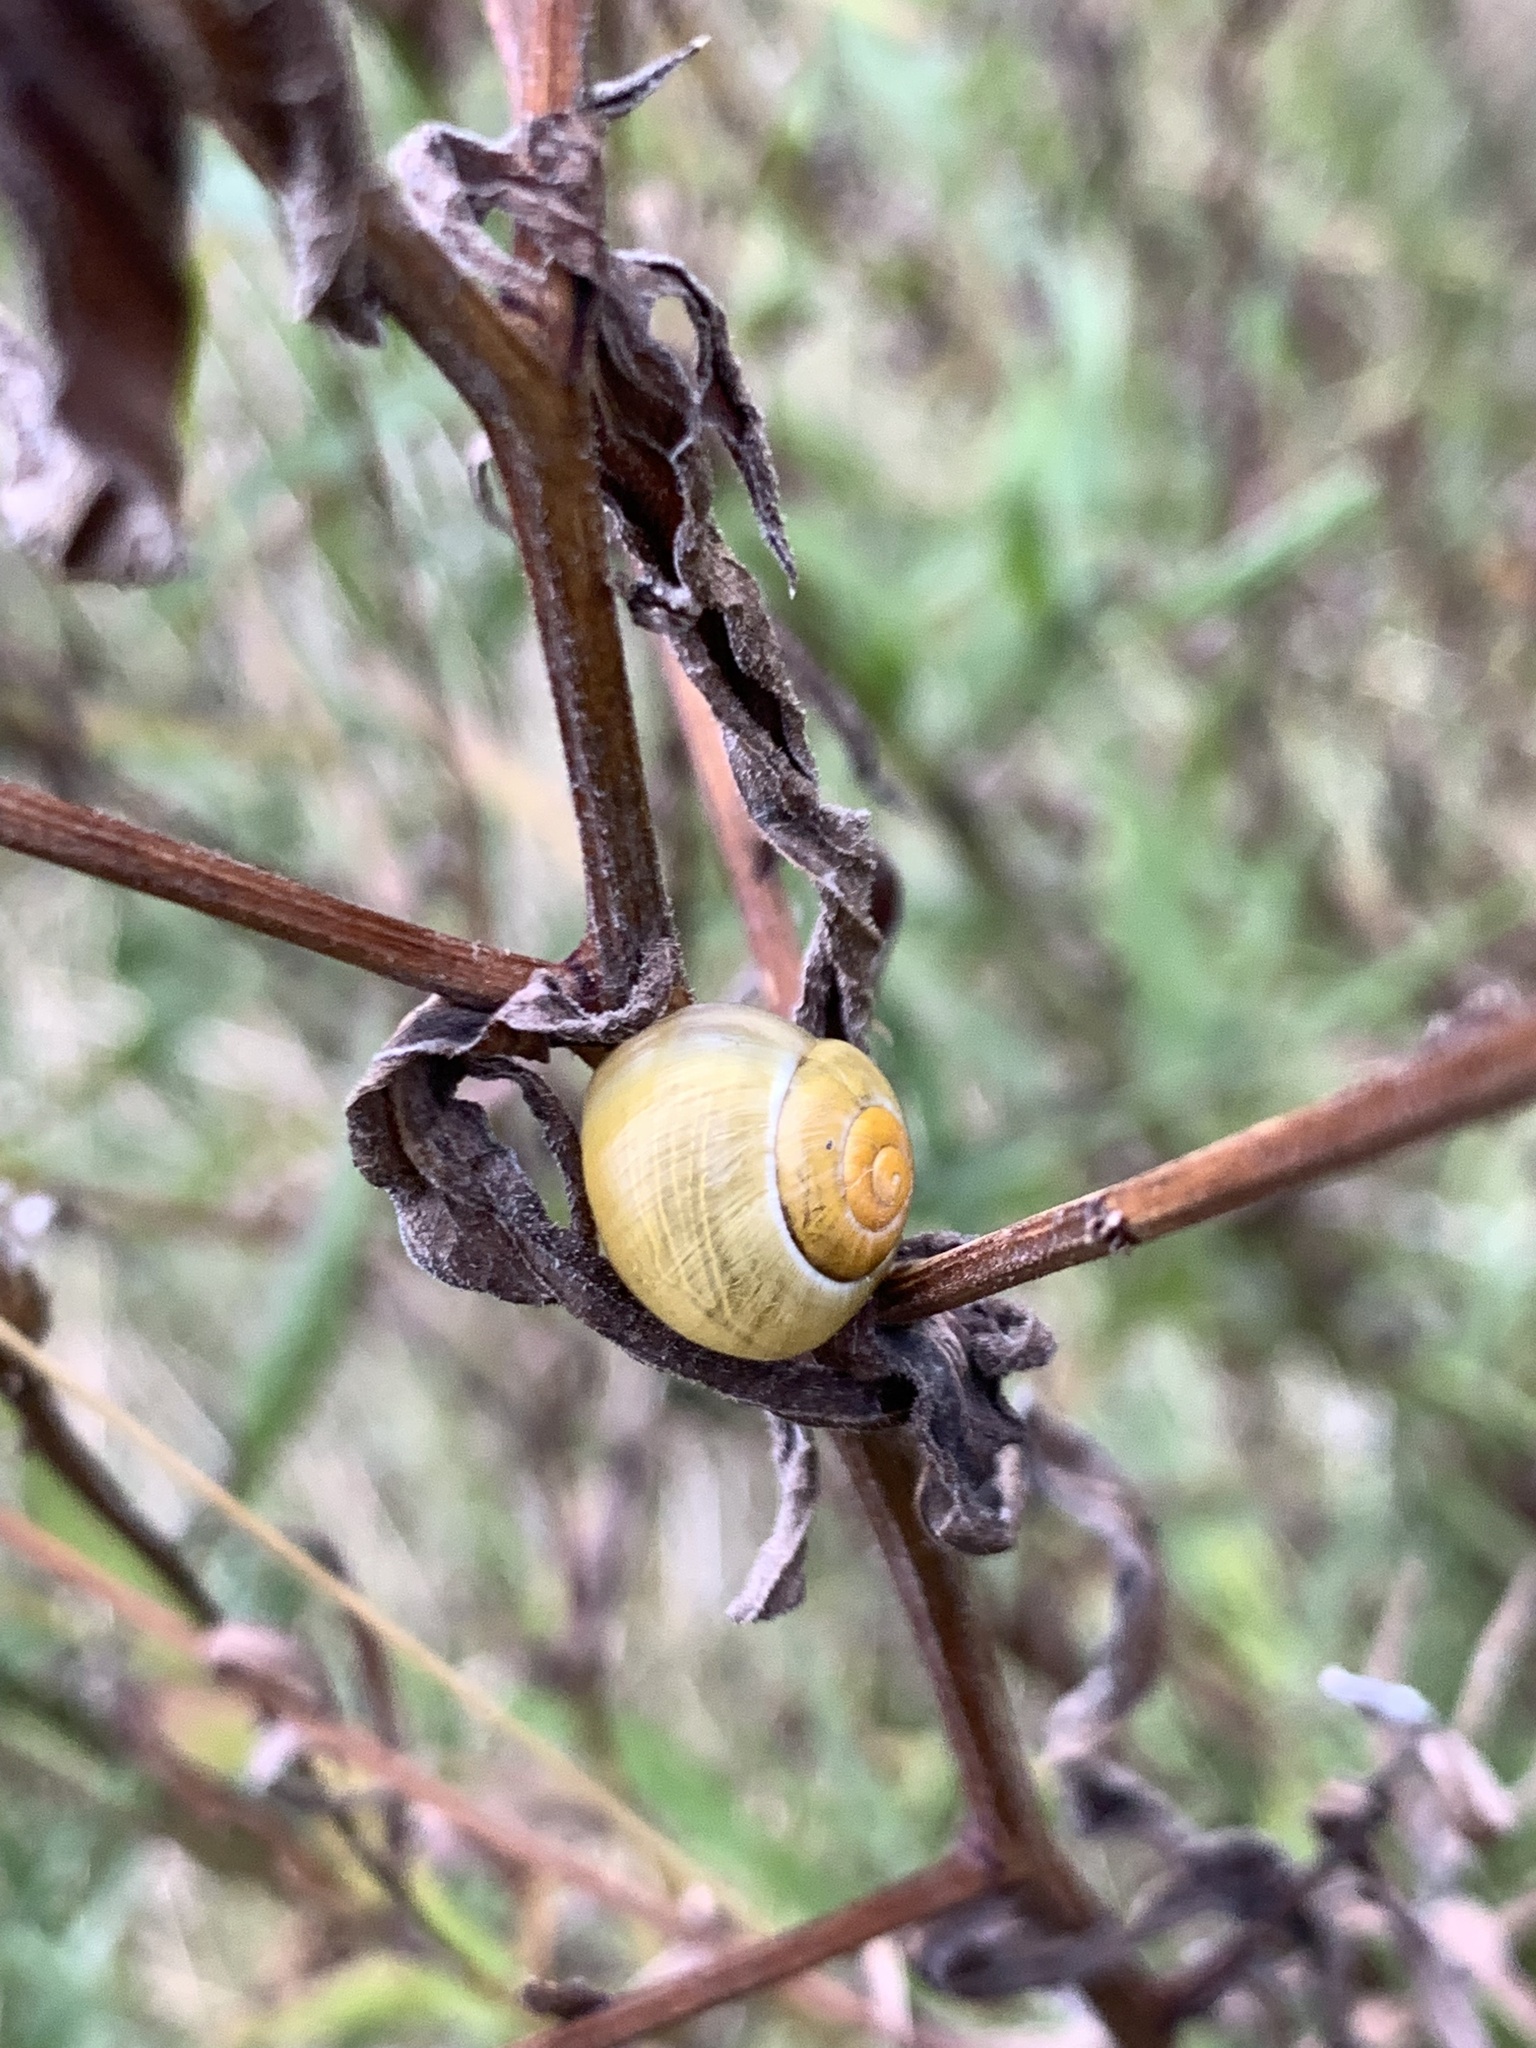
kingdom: Animalia
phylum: Mollusca
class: Gastropoda
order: Stylommatophora
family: Helicidae
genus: Cepaea
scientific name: Cepaea
